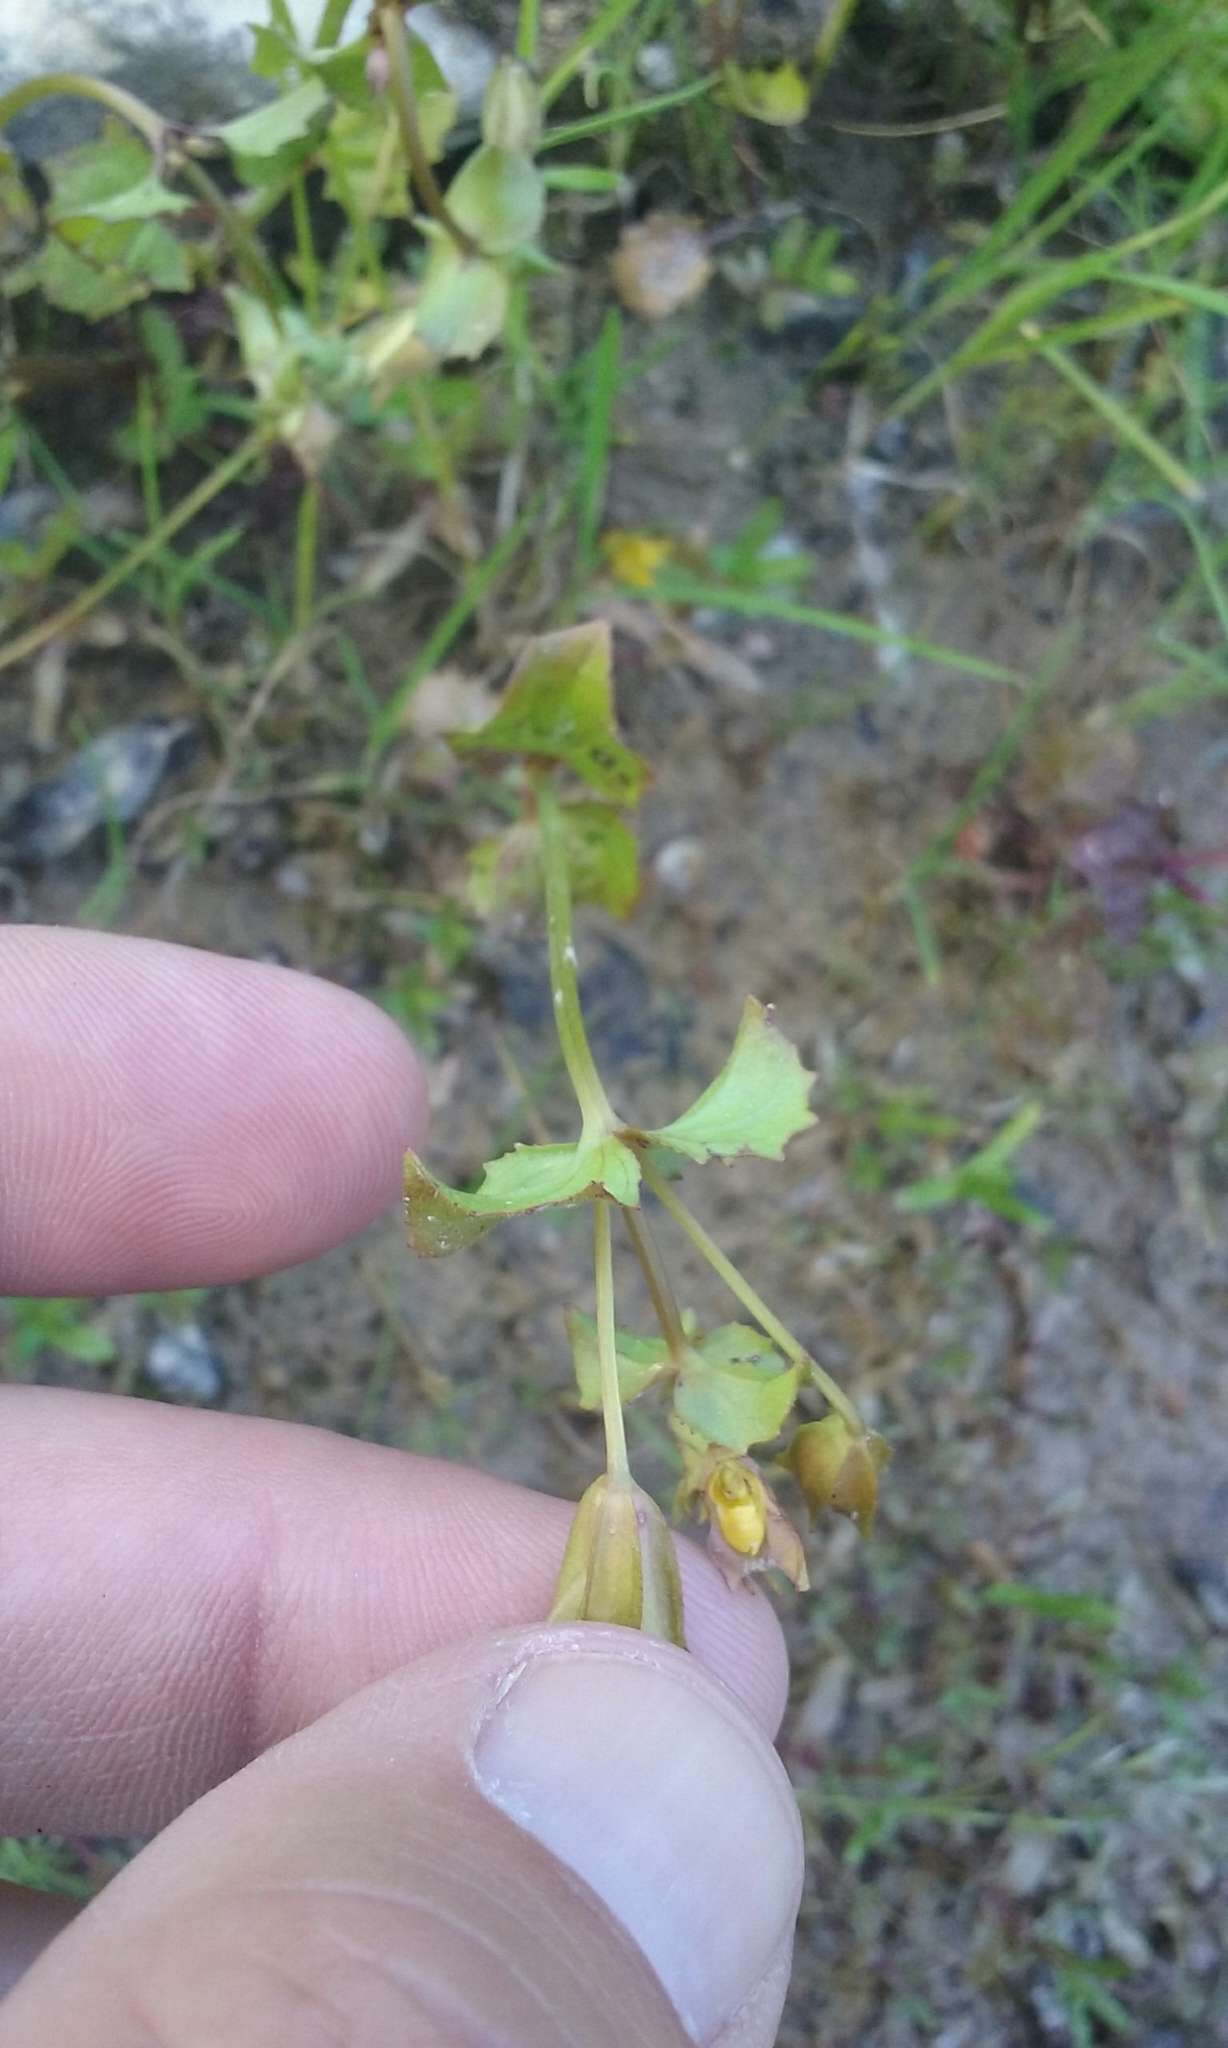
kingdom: Plantae
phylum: Tracheophyta
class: Magnoliopsida
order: Lamiales
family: Phrymaceae
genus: Erythranthe
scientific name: Erythranthe guttata
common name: Monkeyflower
